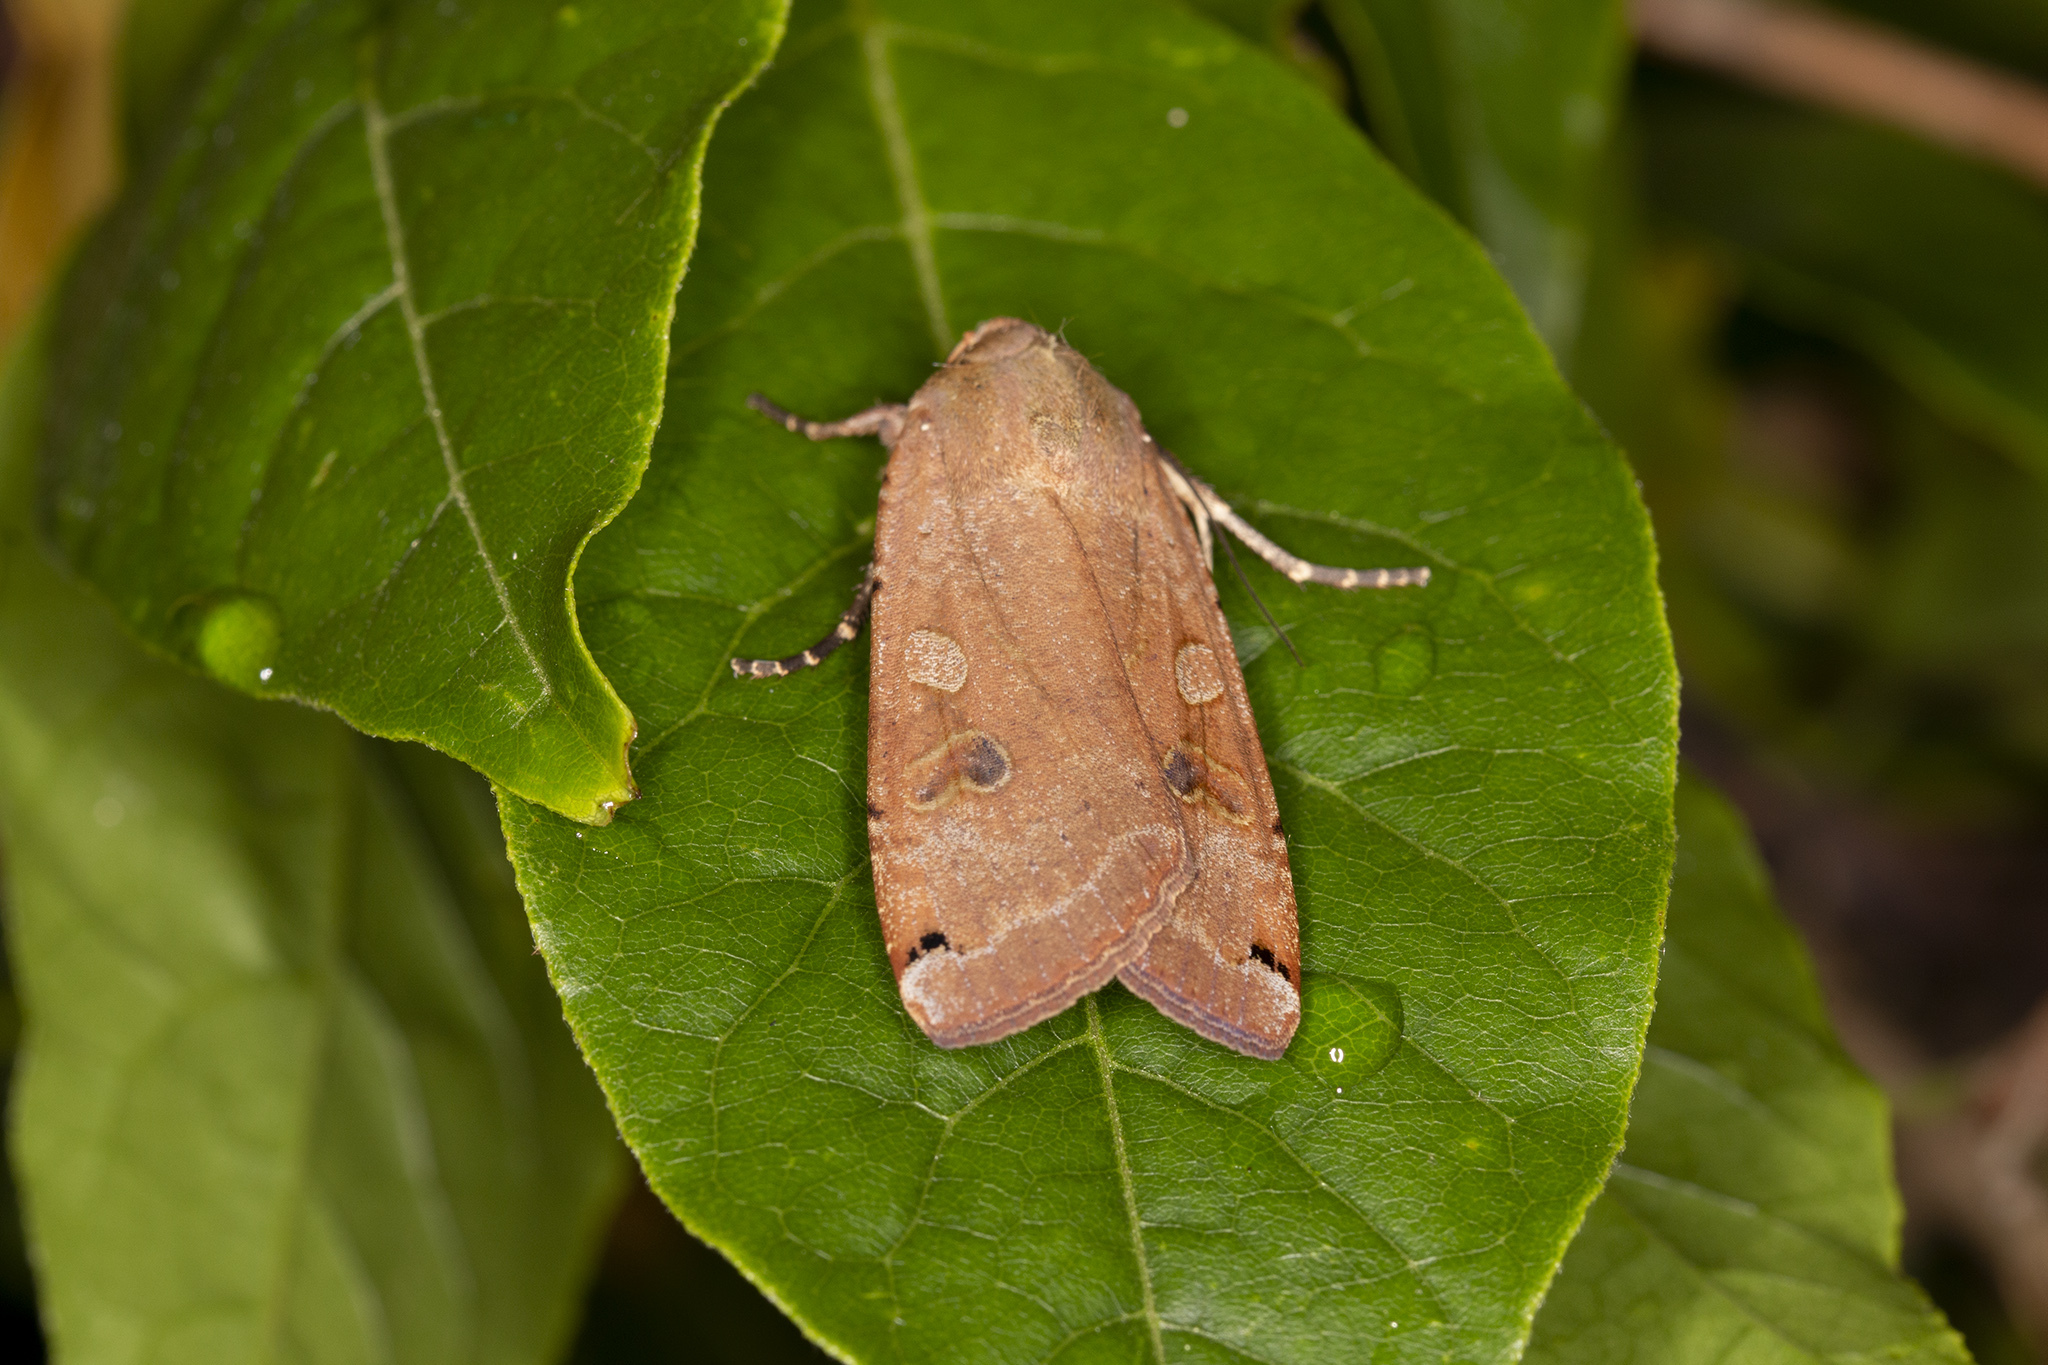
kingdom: Animalia
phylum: Arthropoda
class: Insecta
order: Lepidoptera
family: Noctuidae
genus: Noctua
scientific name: Noctua pronuba
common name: Large yellow underwing
